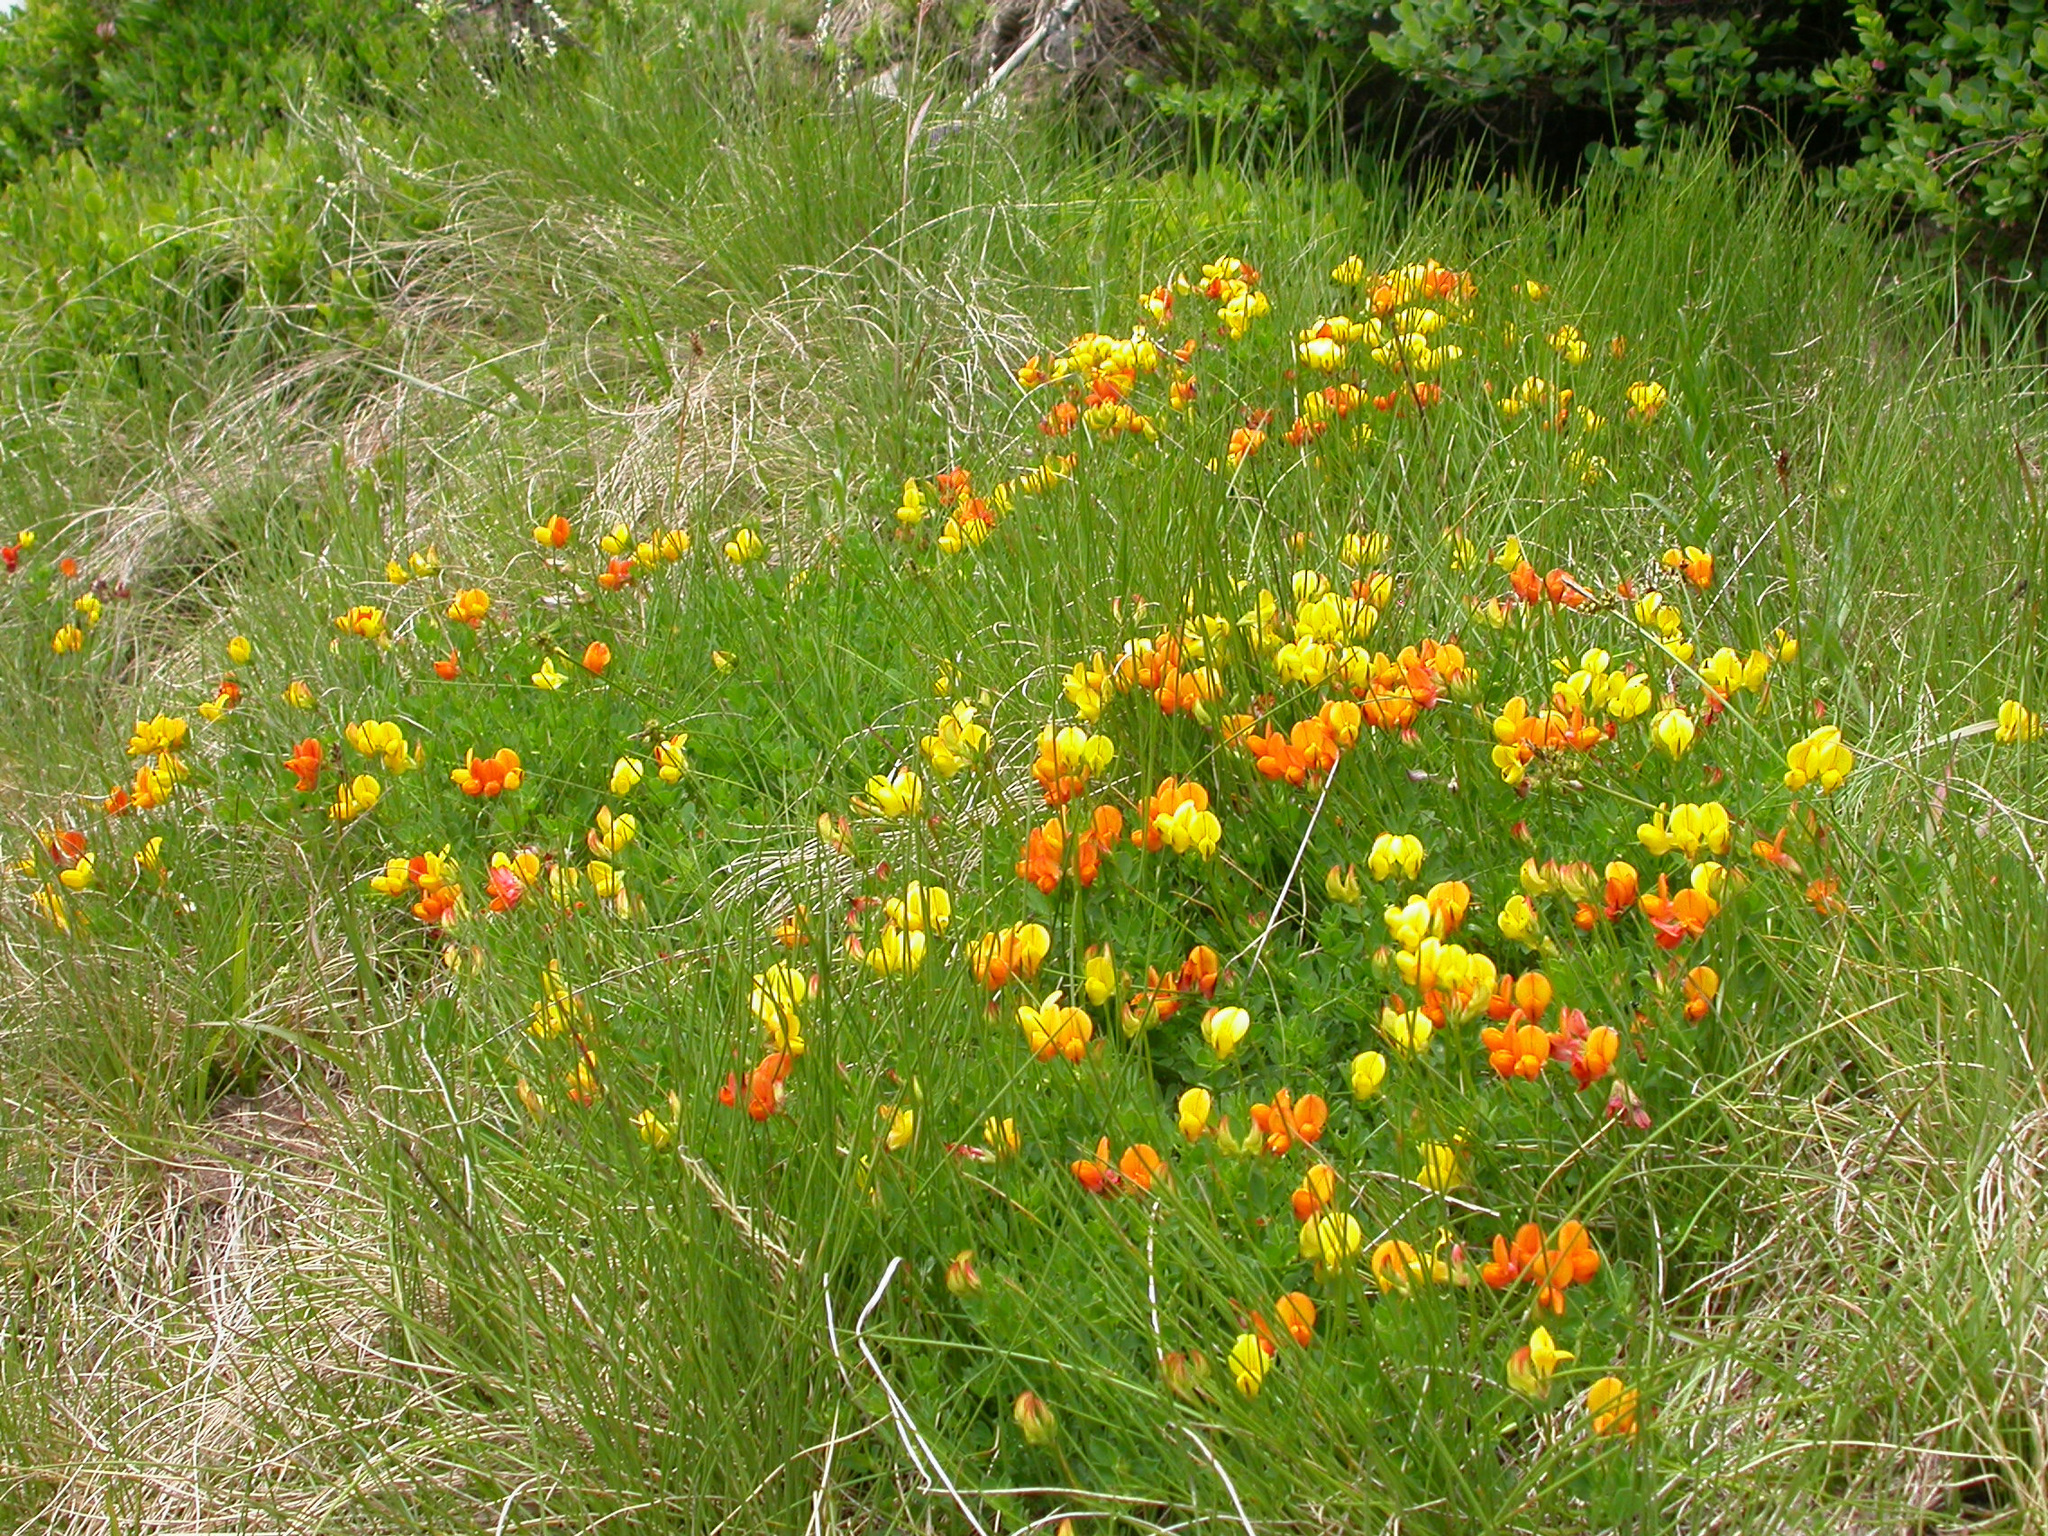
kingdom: Plantae
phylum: Tracheophyta
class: Magnoliopsida
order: Fabales
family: Fabaceae
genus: Lotus
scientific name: Lotus corniculatus
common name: Common bird's-foot-trefoil
